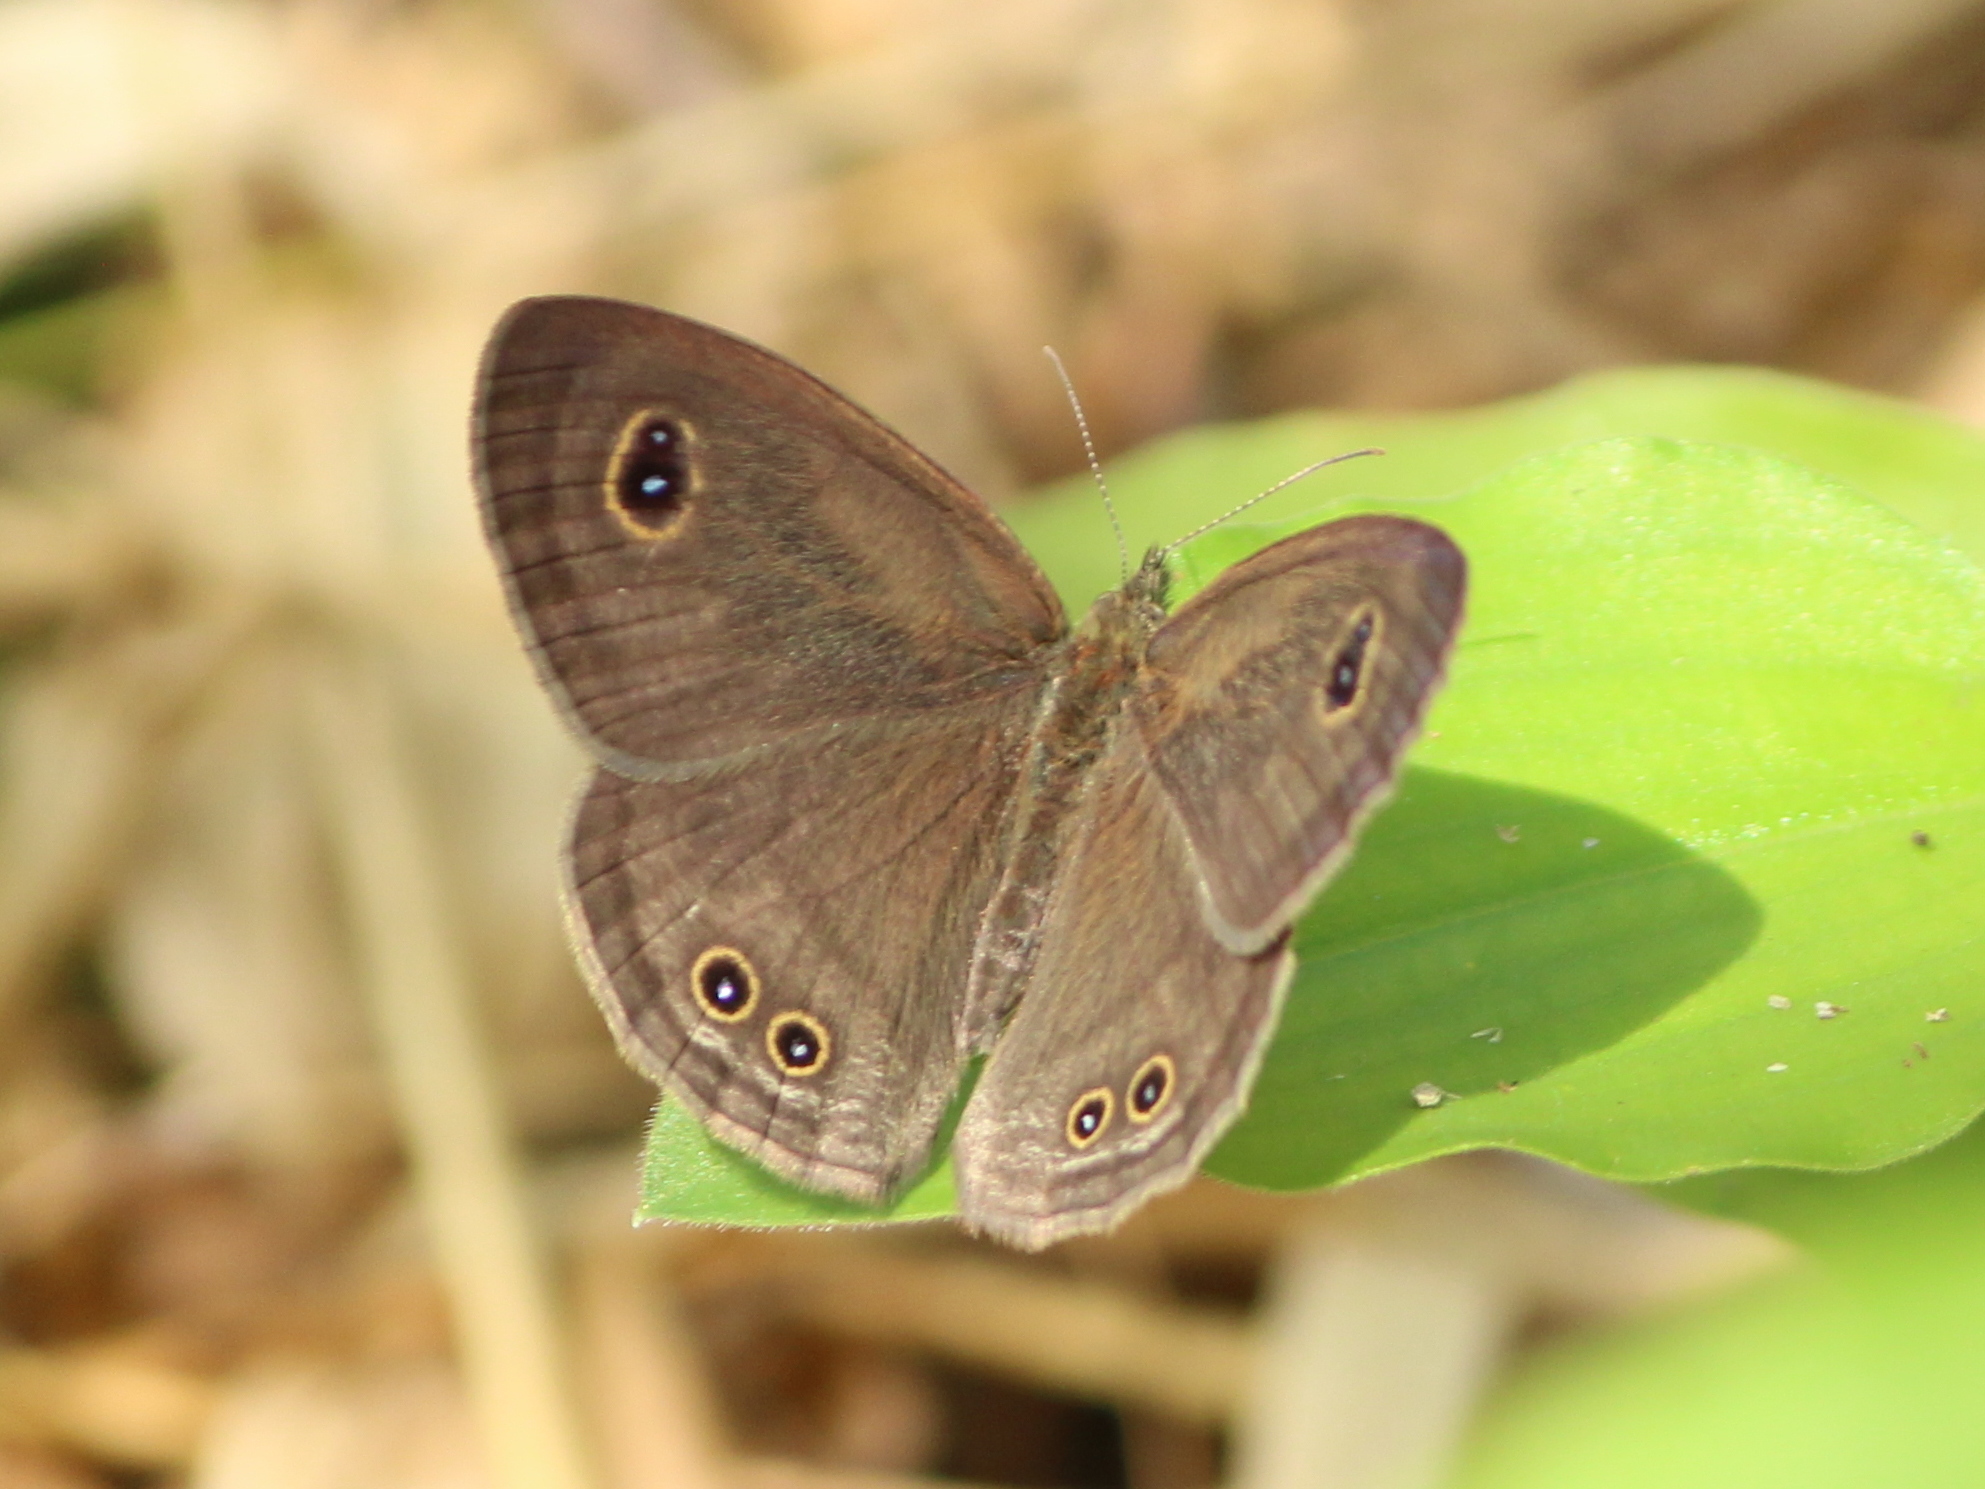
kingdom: Animalia
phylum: Arthropoda
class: Insecta
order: Lepidoptera
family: Nymphalidae
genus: Ypthima
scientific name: Ypthima baldus
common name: Common five-ring
